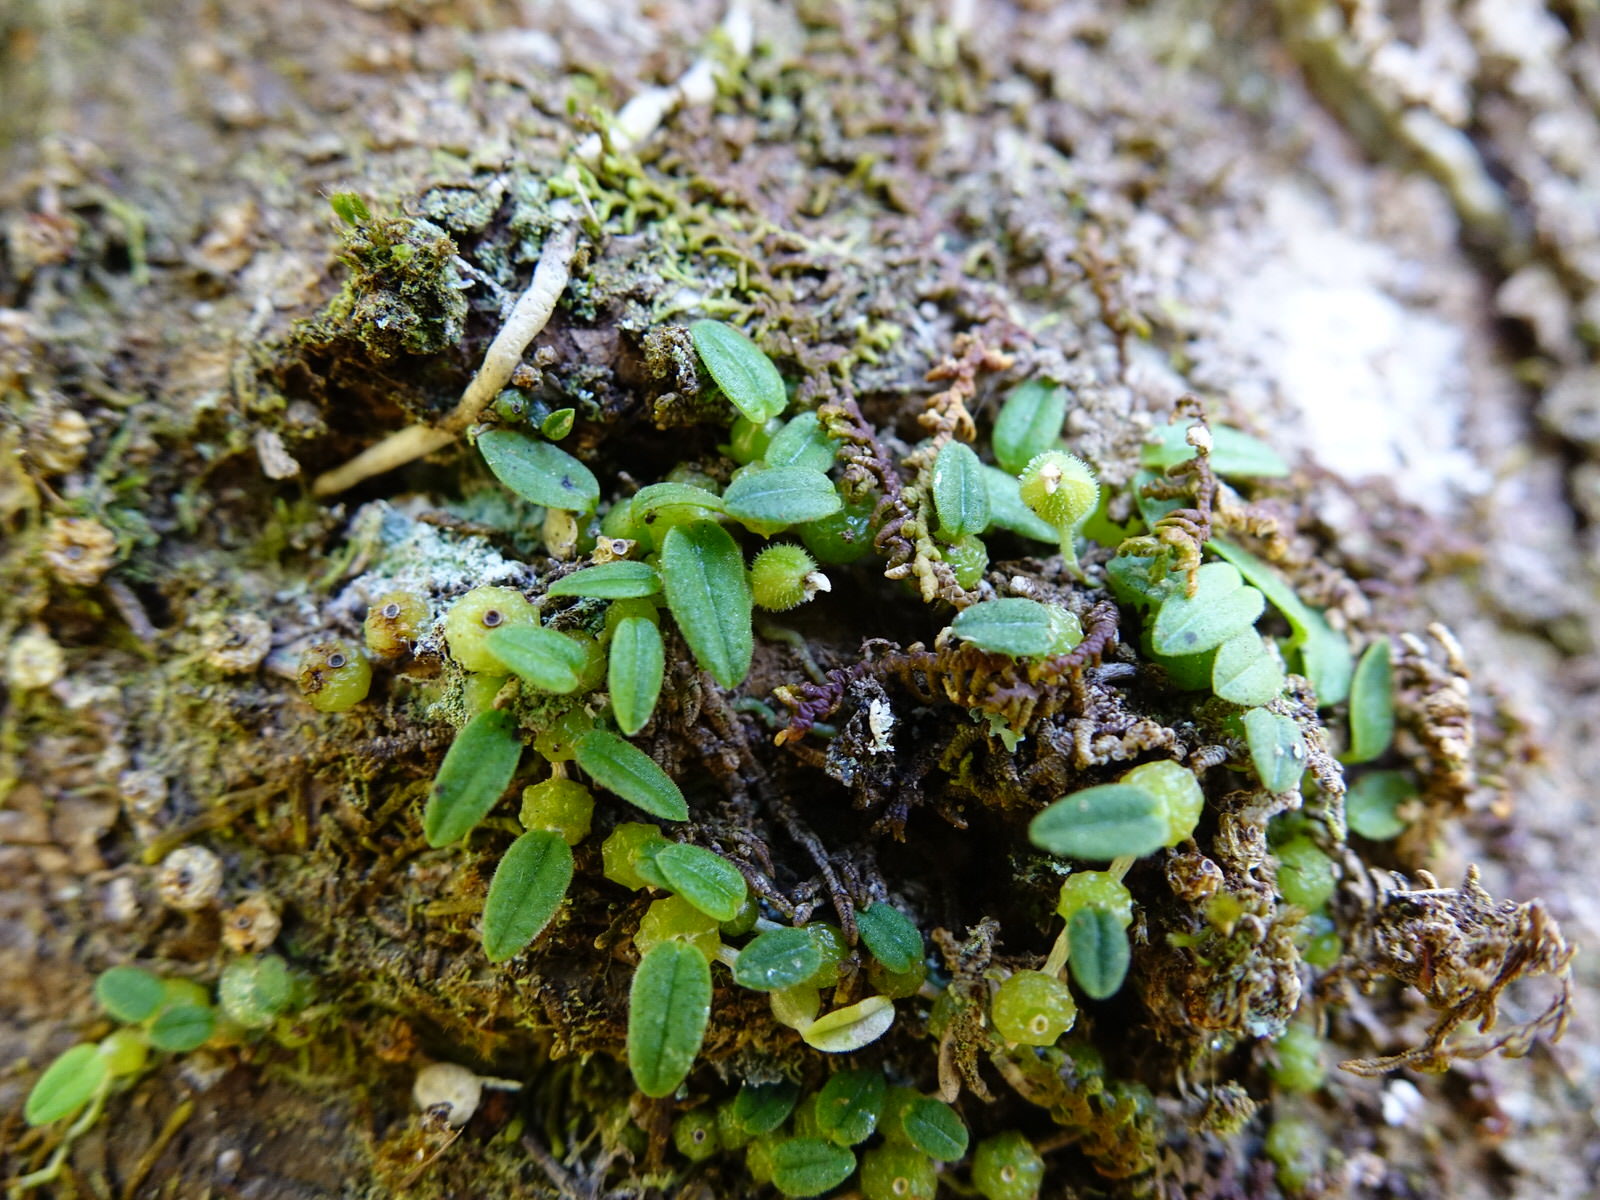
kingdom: Plantae
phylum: Tracheophyta
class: Liliopsida
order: Asparagales
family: Orchidaceae
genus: Bulbophyllum
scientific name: Bulbophyllum pygmaeum
